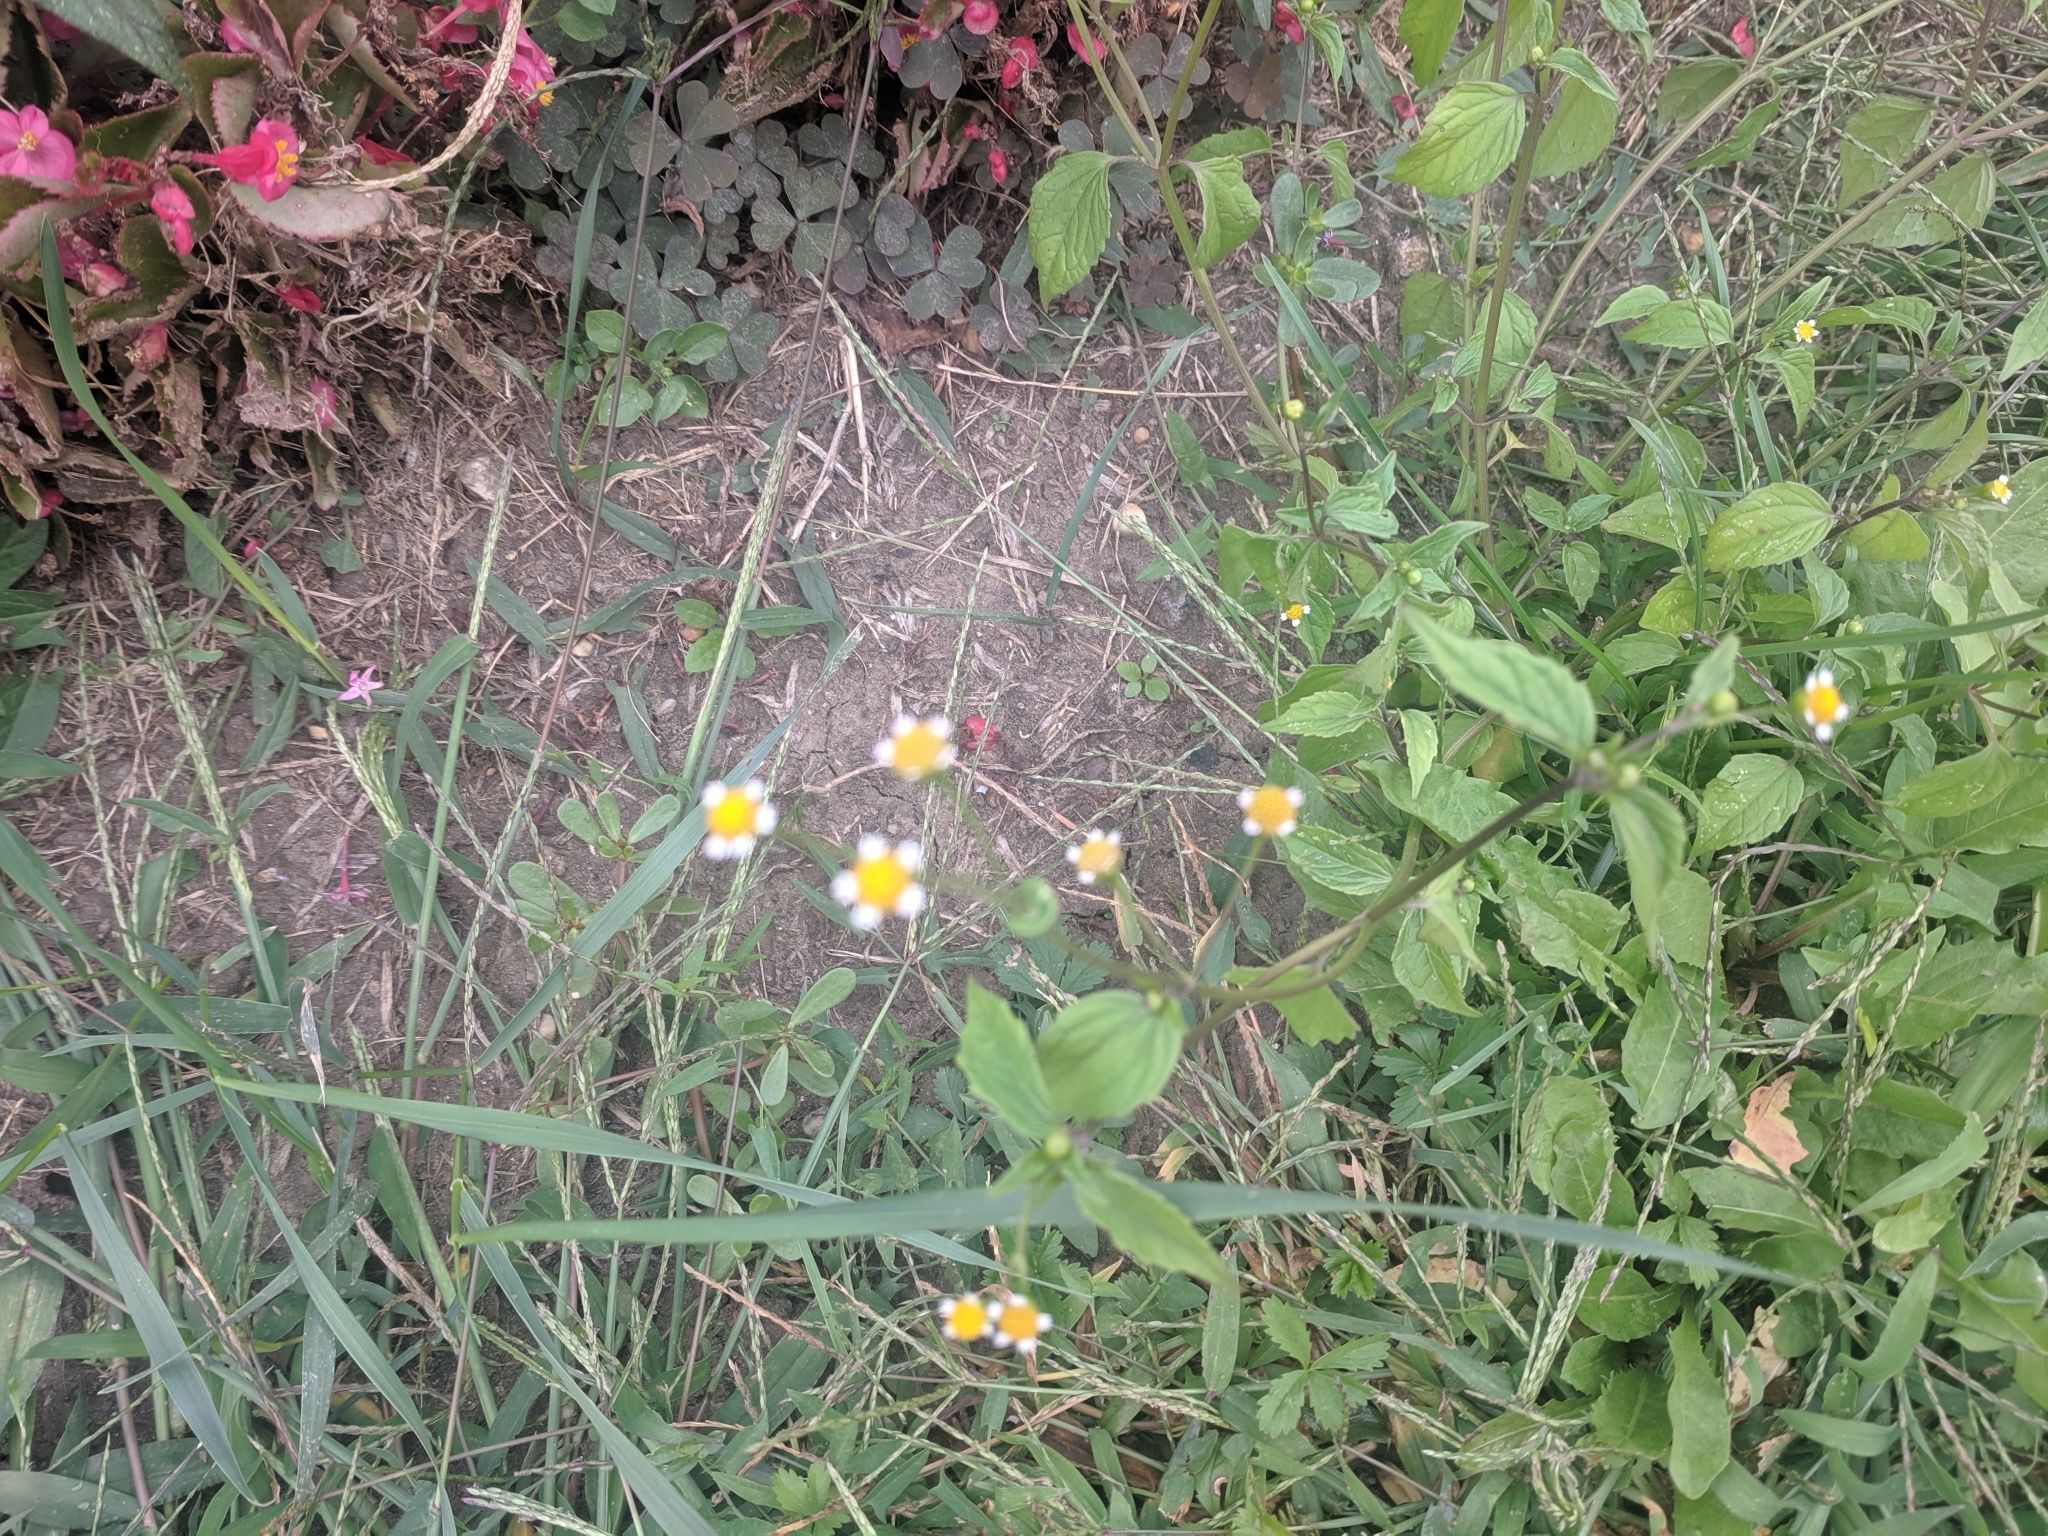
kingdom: Plantae
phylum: Tracheophyta
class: Magnoliopsida
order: Asterales
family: Asteraceae
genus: Galinsoga
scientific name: Galinsoga parviflora
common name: Gallant soldier
